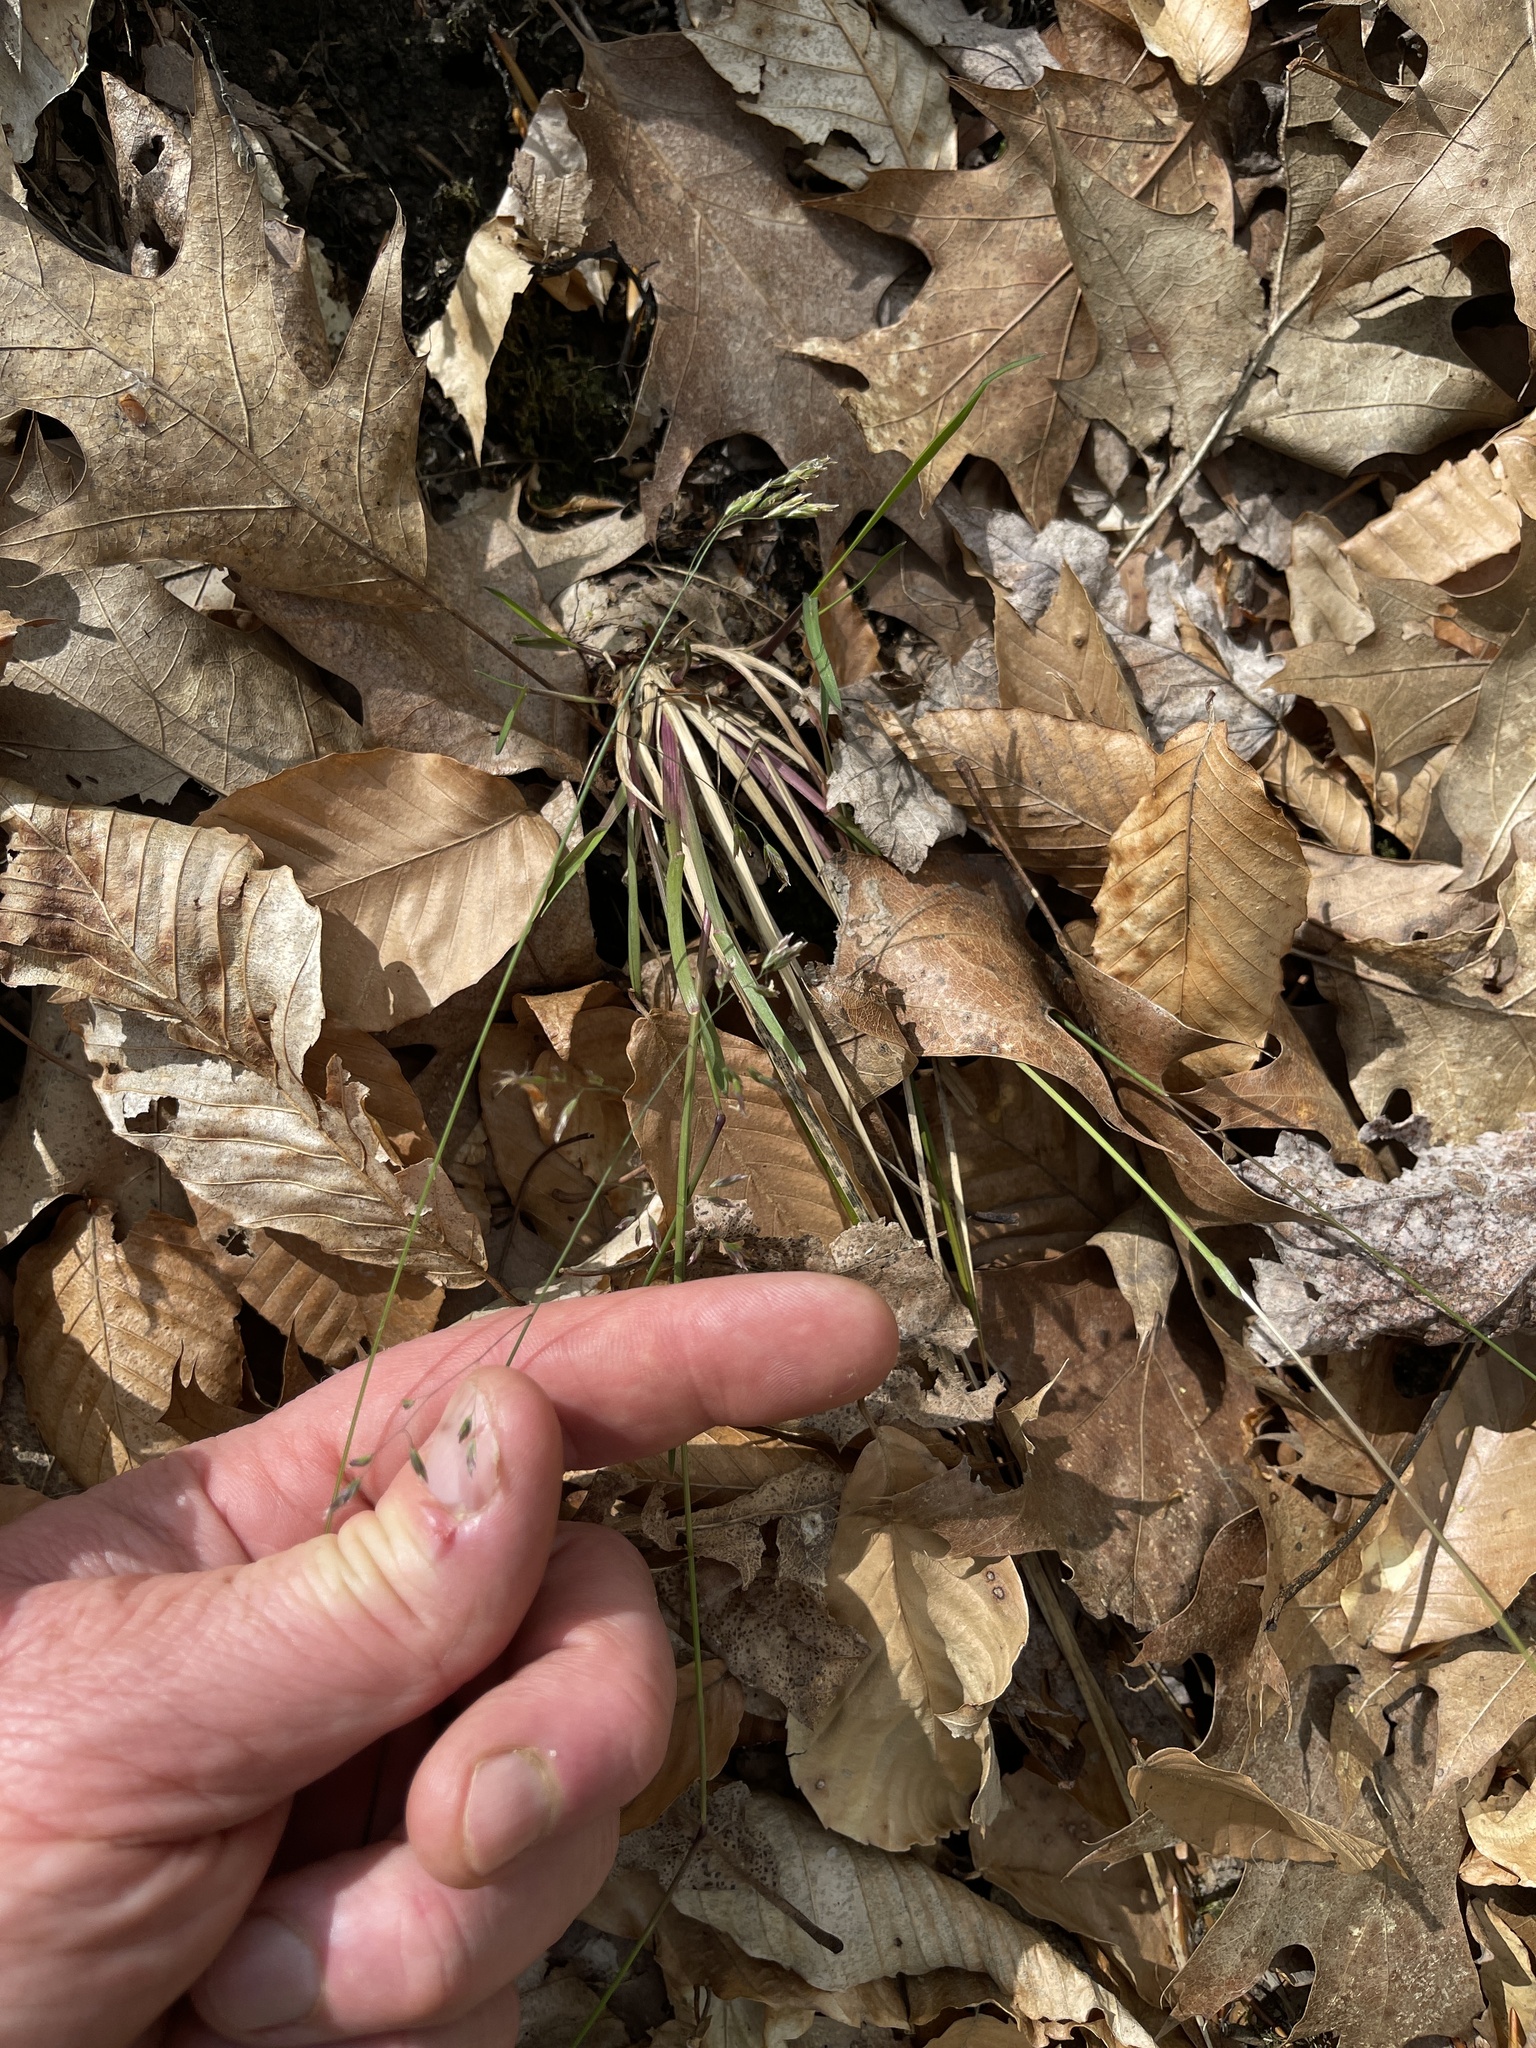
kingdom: Plantae
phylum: Tracheophyta
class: Liliopsida
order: Poales
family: Poaceae
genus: Poa
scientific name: Poa cuspidata
